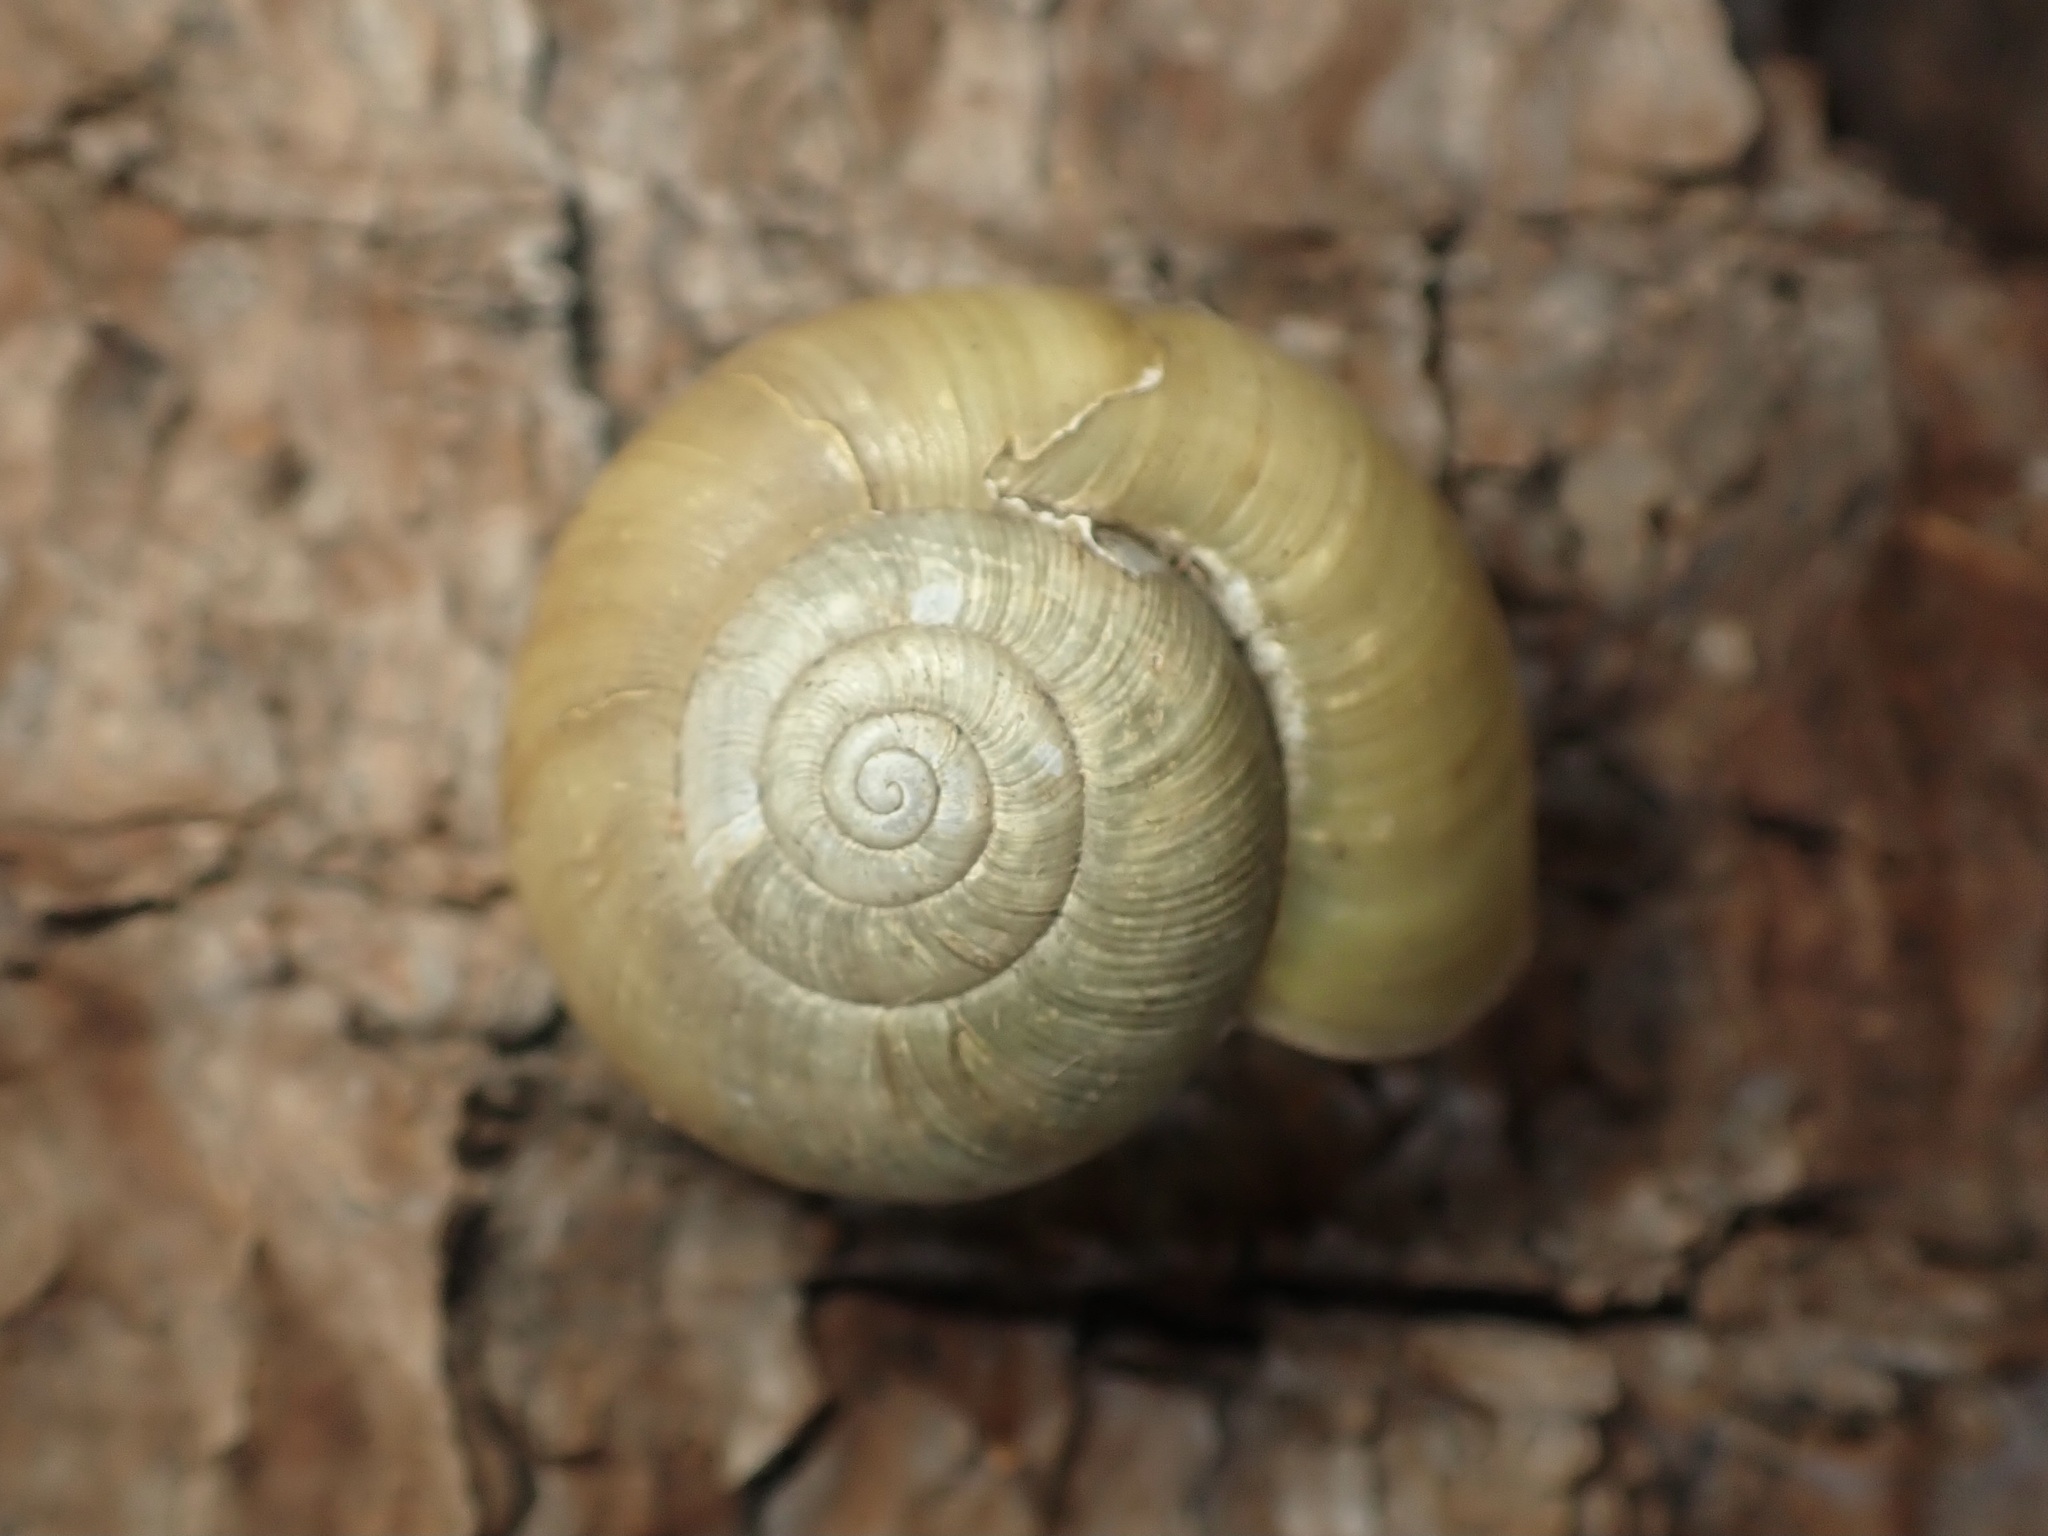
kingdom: Animalia
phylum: Mollusca
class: Gastropoda
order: Stylommatophora
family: Haplotrematidae
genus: Haplotrema
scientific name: Haplotrema minimum
